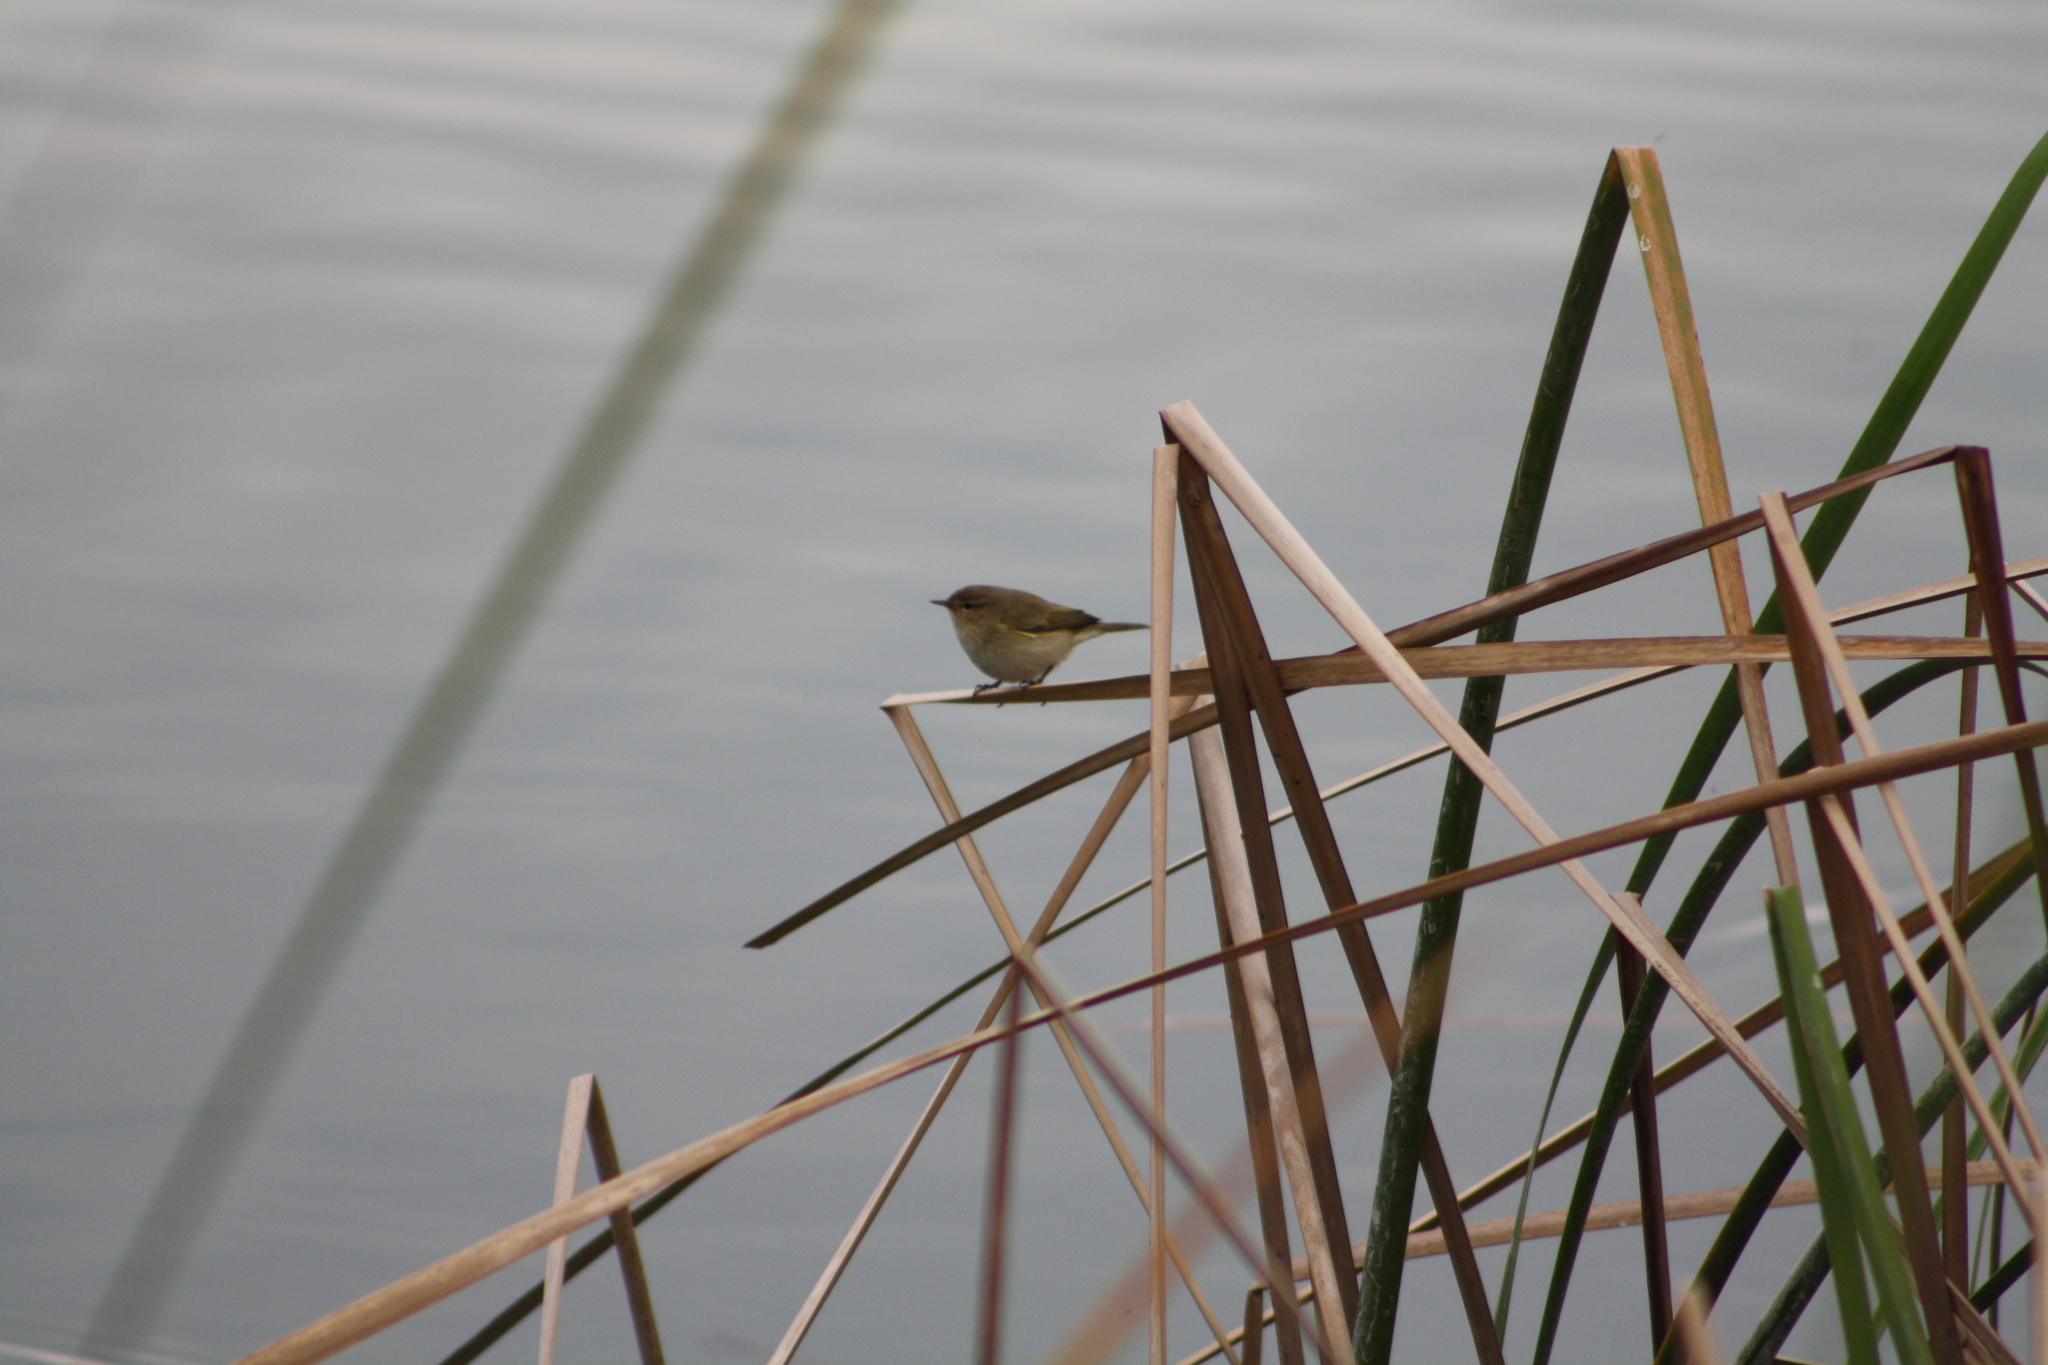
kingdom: Animalia
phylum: Chordata
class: Aves
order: Passeriformes
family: Phylloscopidae
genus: Phylloscopus
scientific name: Phylloscopus collybita
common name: Common chiffchaff
